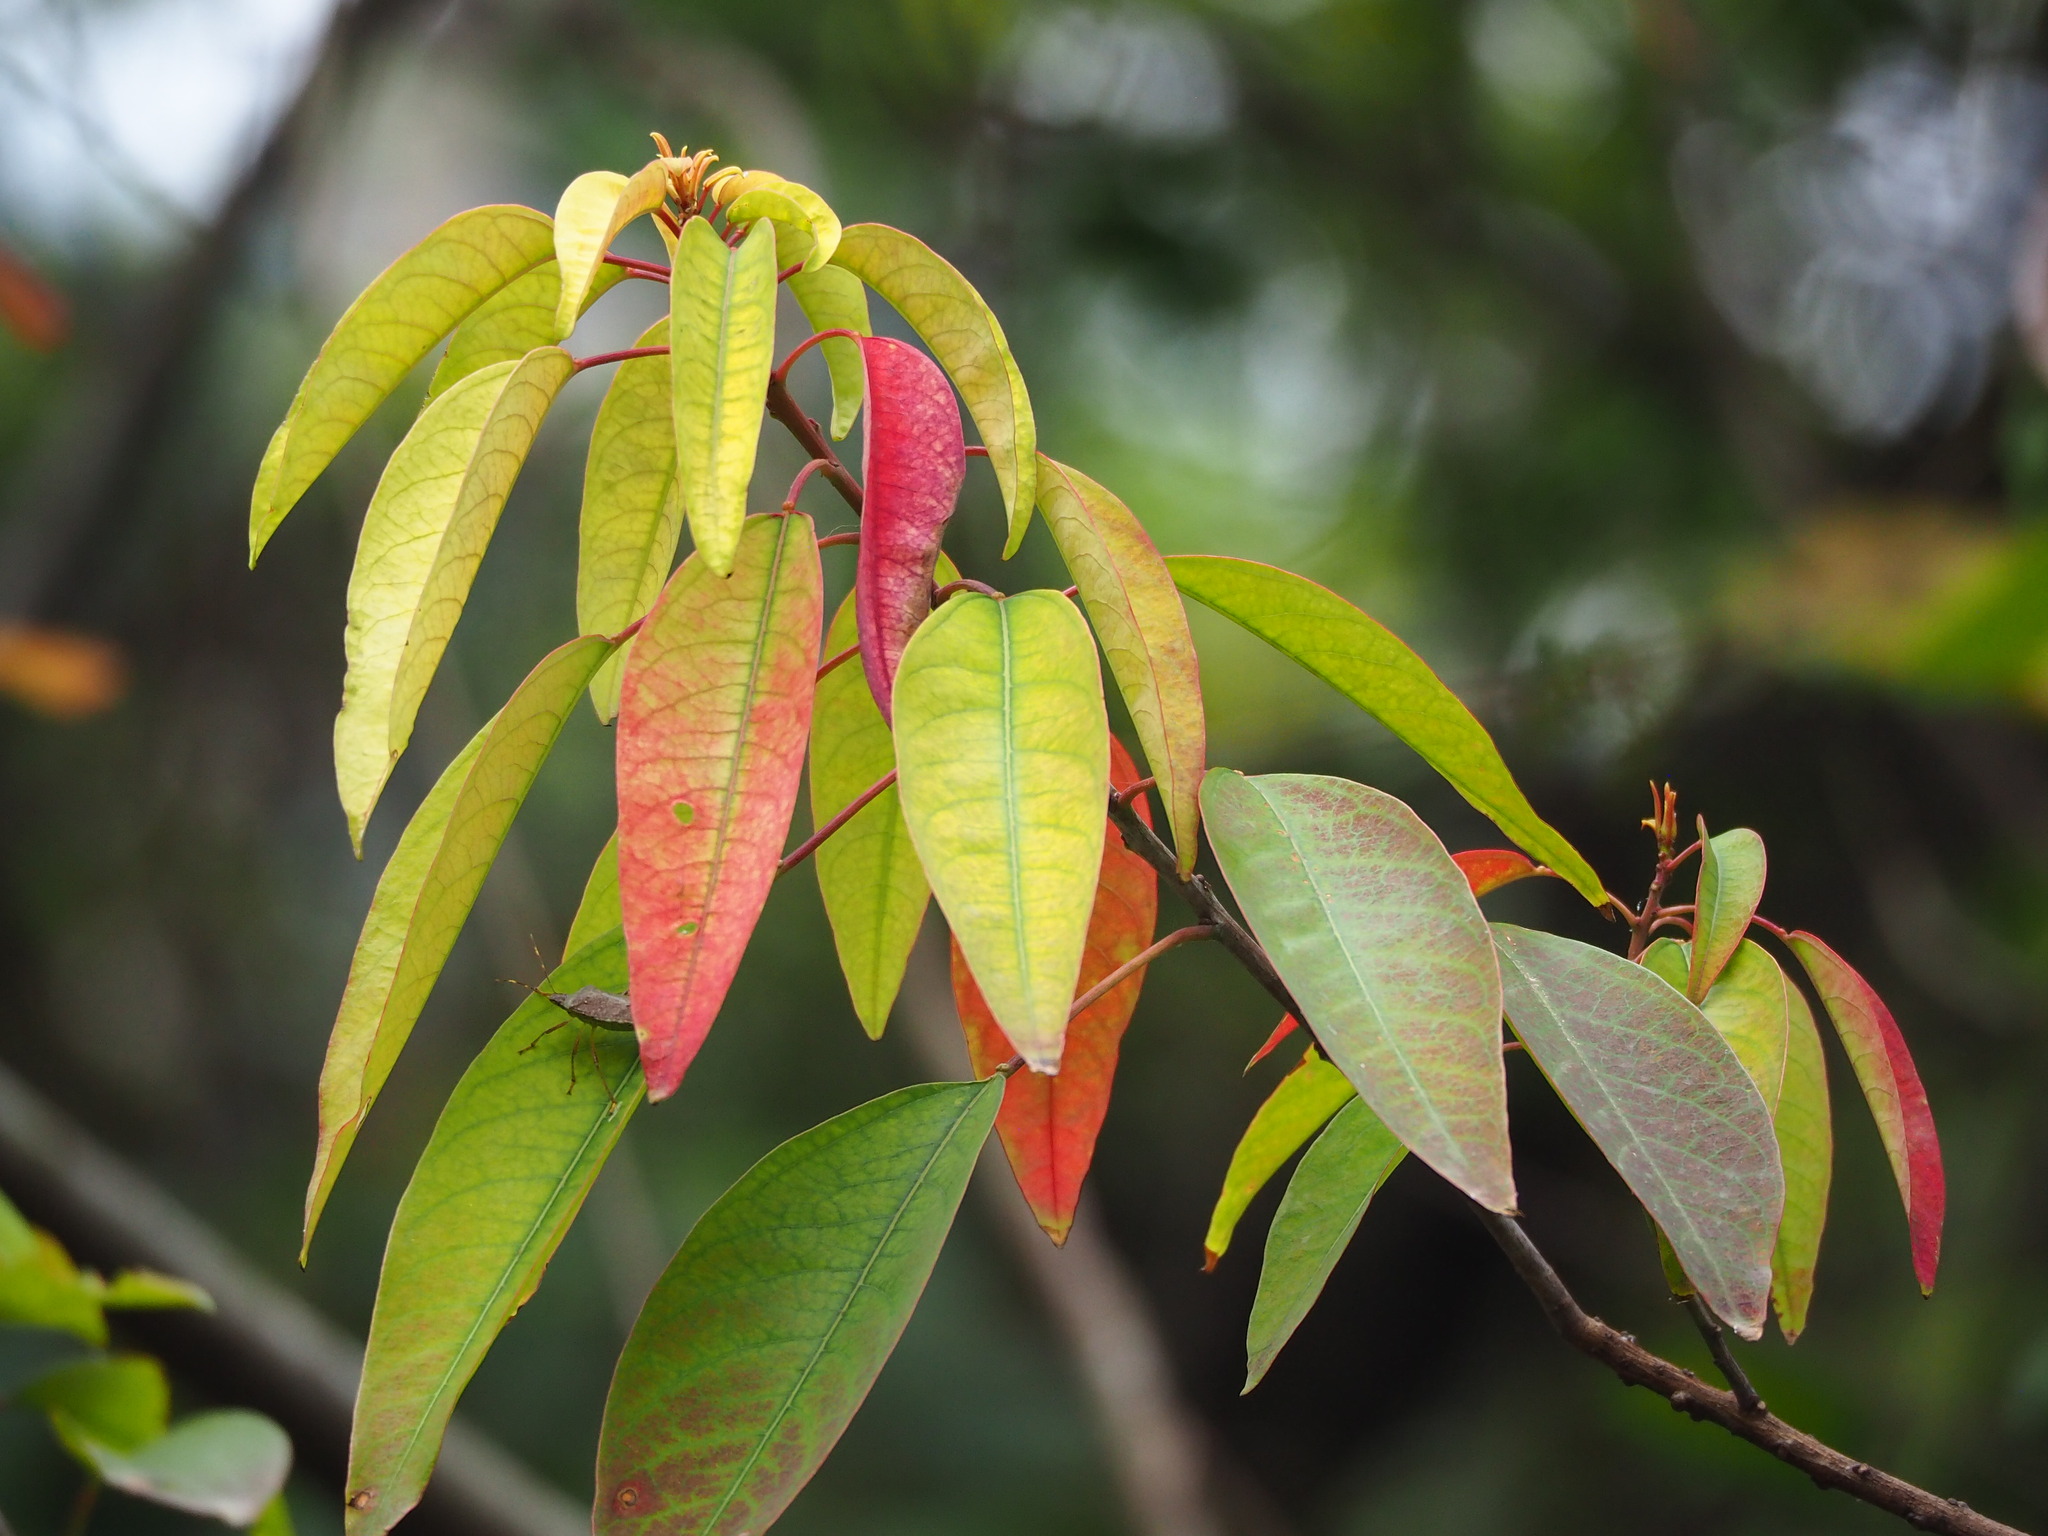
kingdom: Plantae
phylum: Tracheophyta
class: Magnoliopsida
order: Malpighiales
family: Euphorbiaceae
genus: Triadica
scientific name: Triadica cochinchinensis
